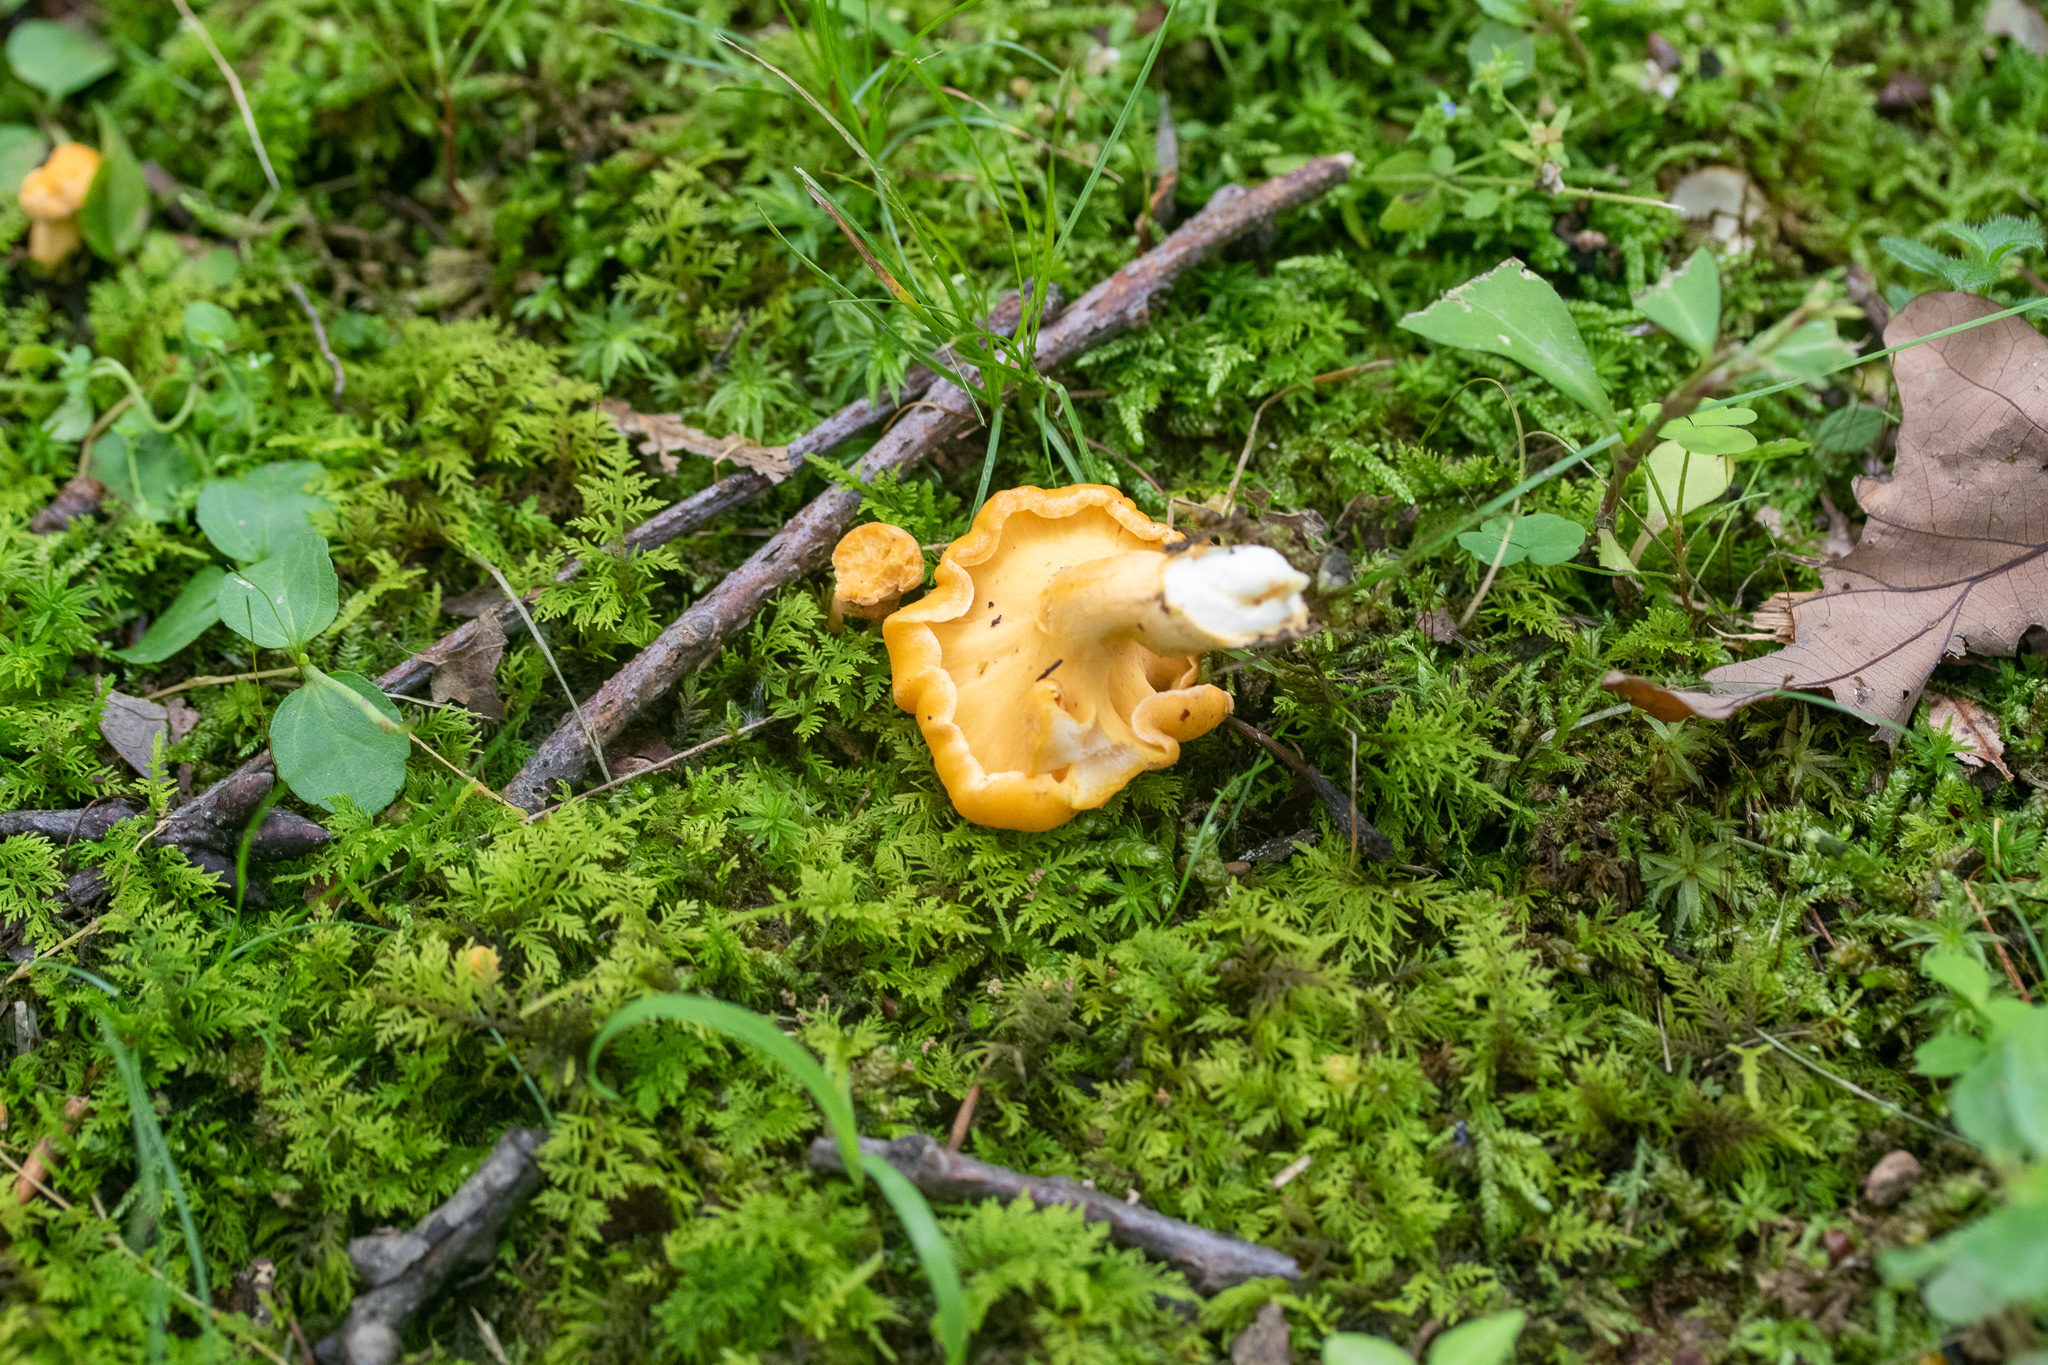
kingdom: Fungi
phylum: Basidiomycota
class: Agaricomycetes
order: Cantharellales
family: Hydnaceae
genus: Cantharellus
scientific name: Cantharellus lateritius
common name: Smooth chanterelle
